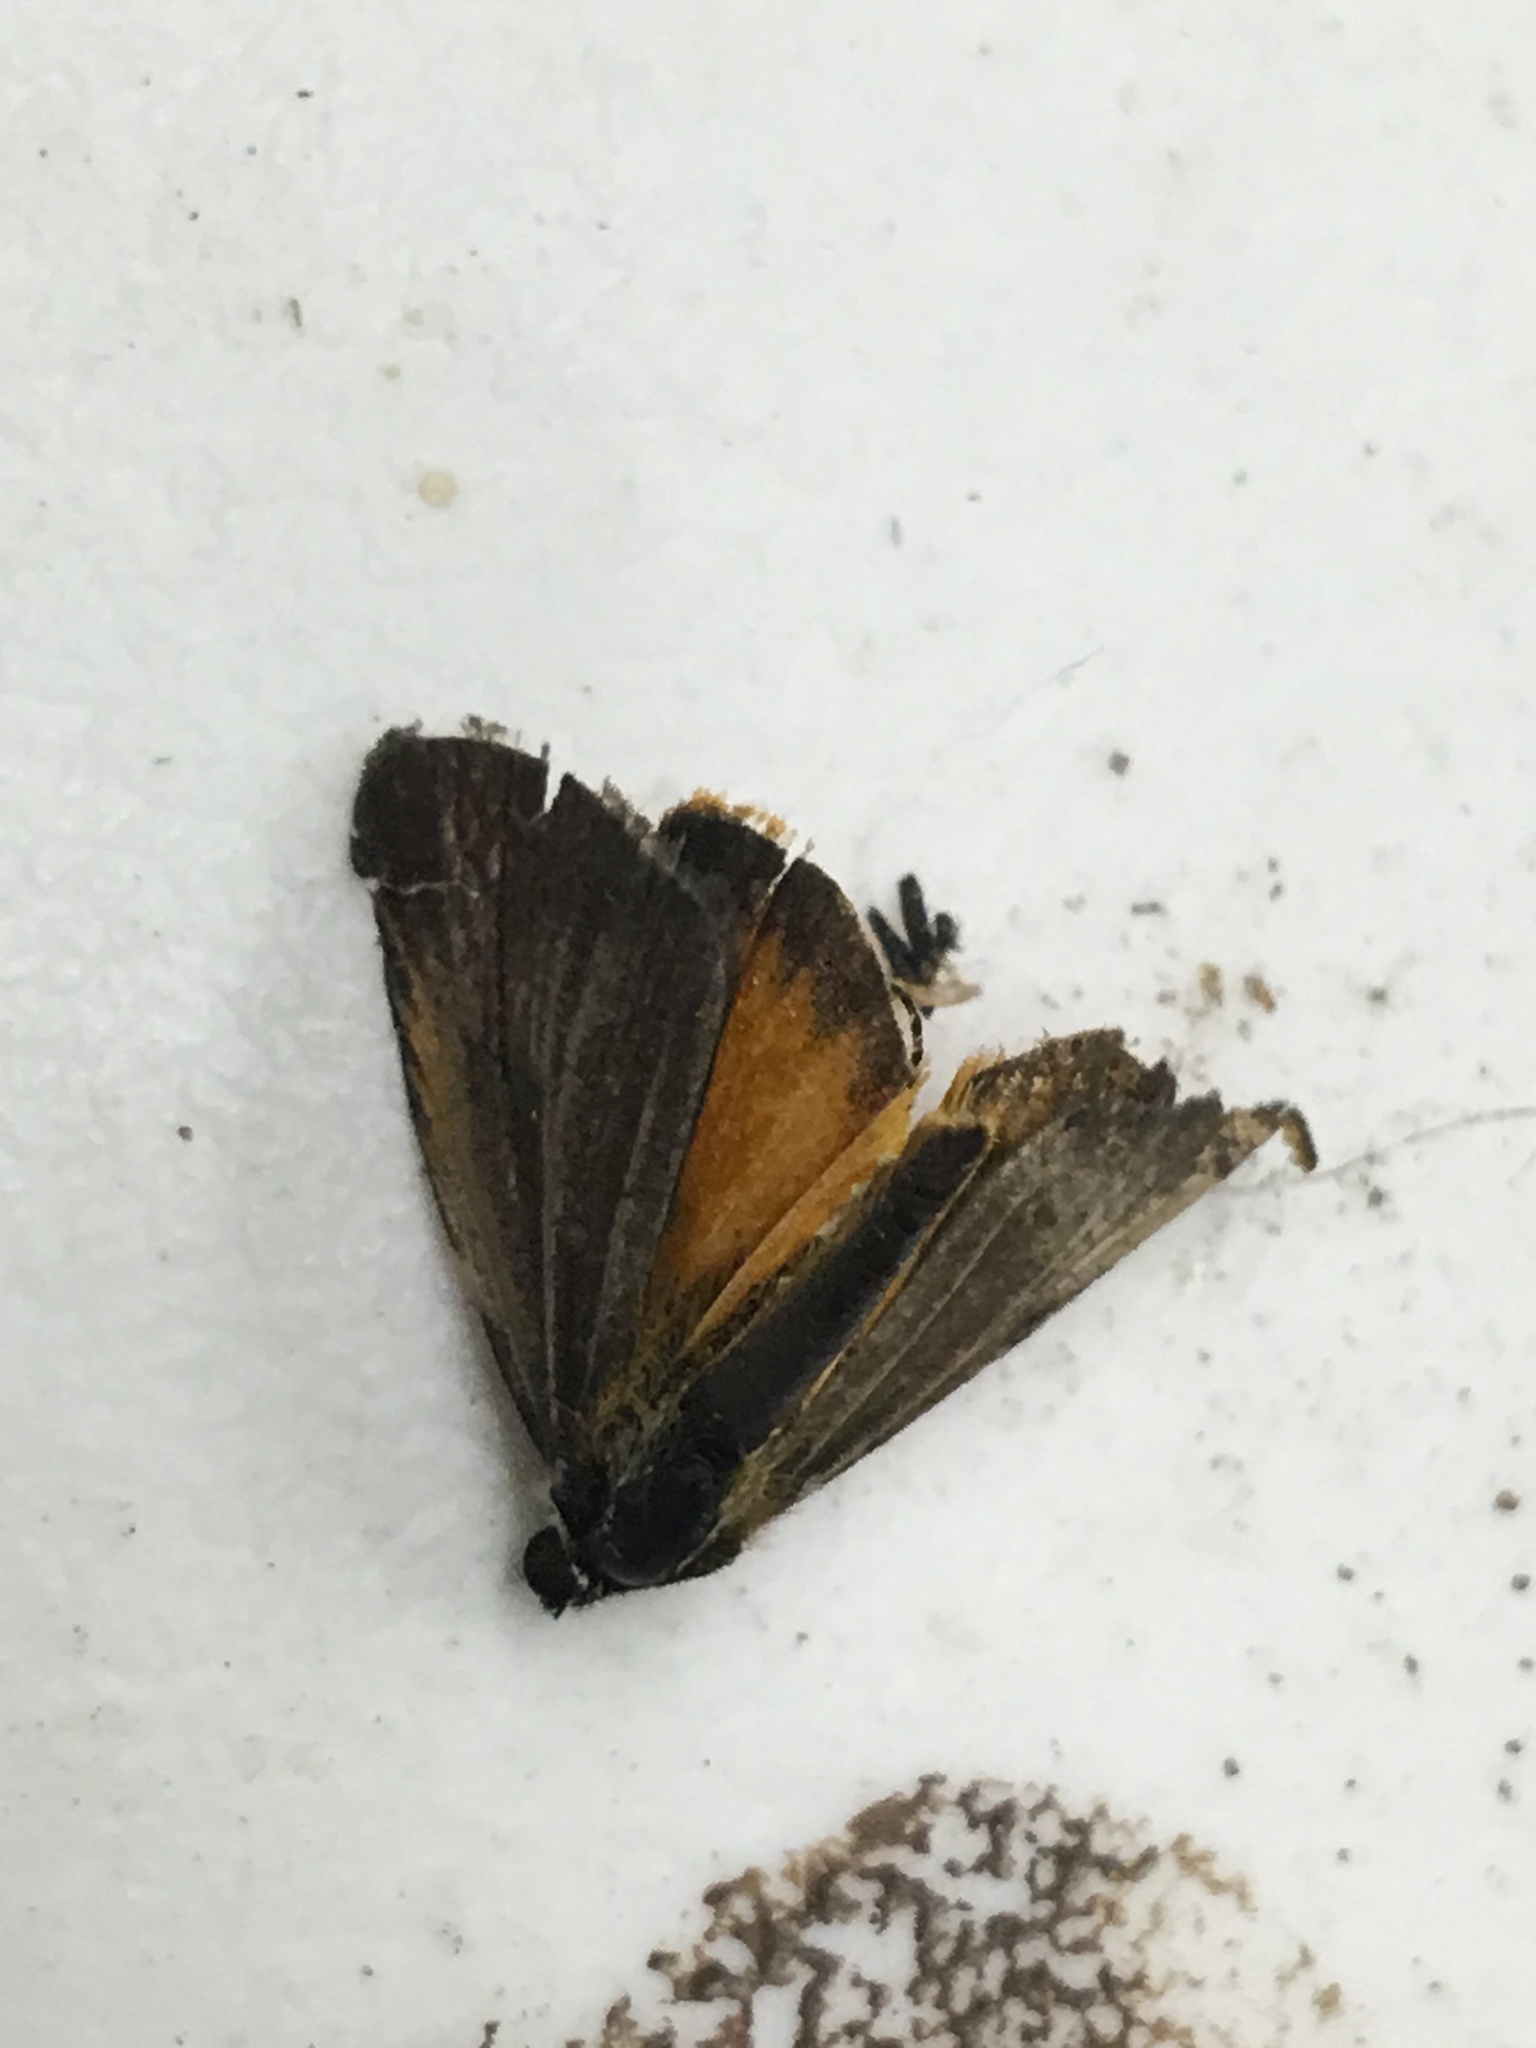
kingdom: Animalia
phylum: Arthropoda
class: Insecta
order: Lepidoptera
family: Hesperiidae
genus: Ancyloxypha
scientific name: Ancyloxypha numitor
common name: Least skipper
